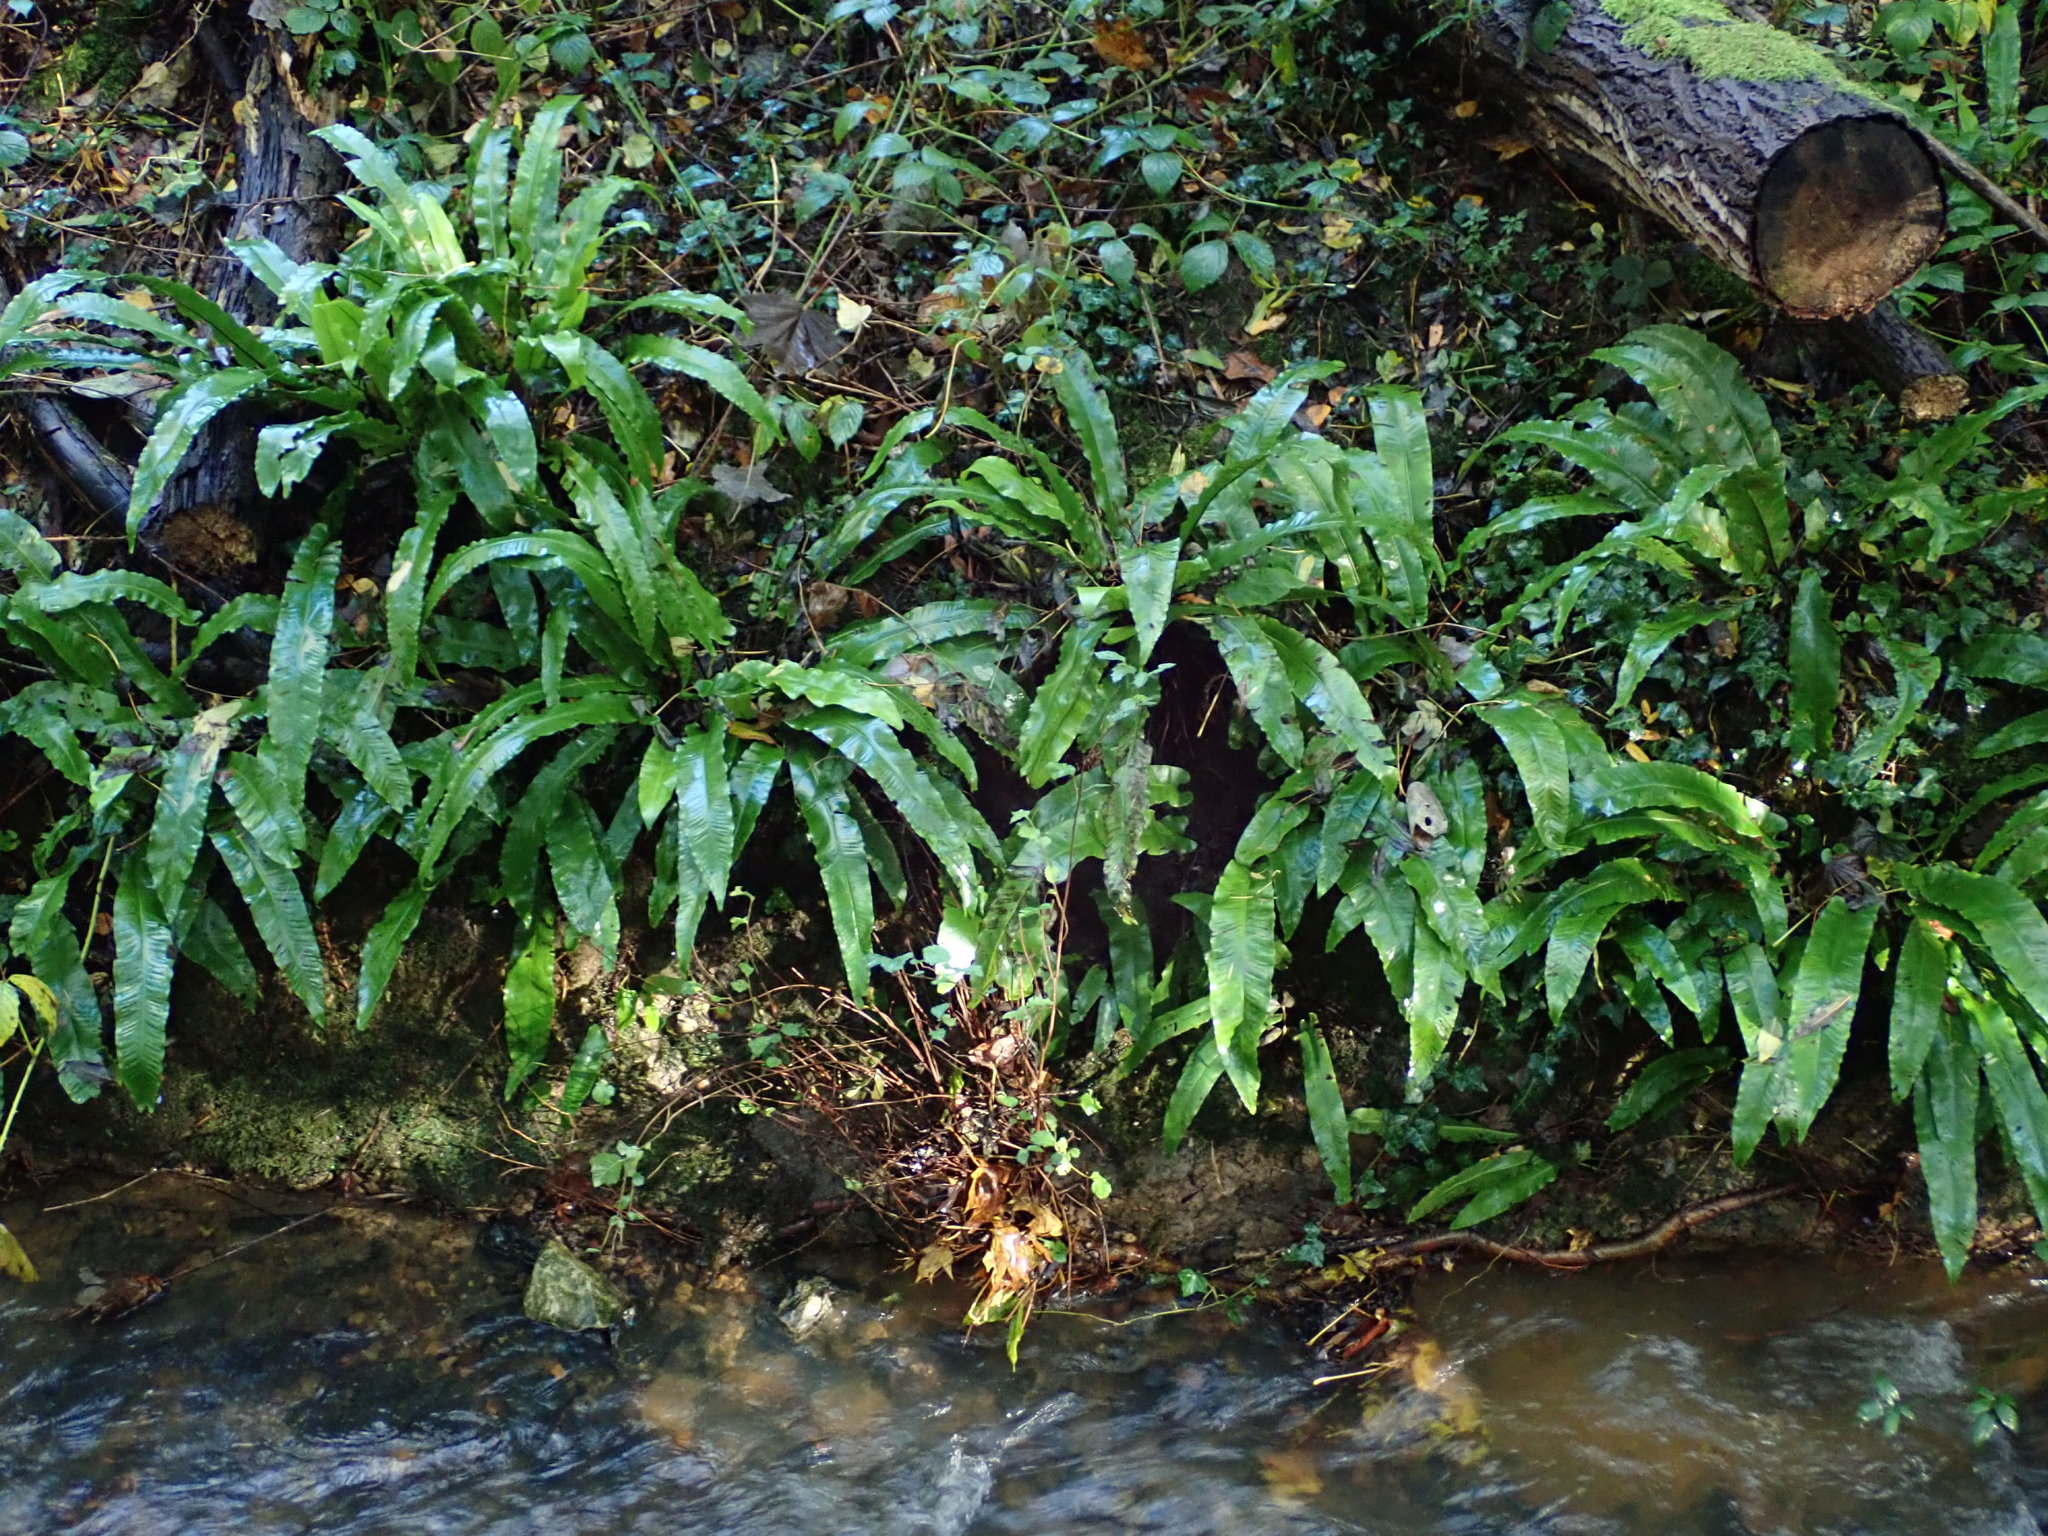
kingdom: Plantae
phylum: Tracheophyta
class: Polypodiopsida
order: Polypodiales
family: Aspleniaceae
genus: Asplenium
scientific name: Asplenium scolopendrium
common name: Hart's-tongue fern
